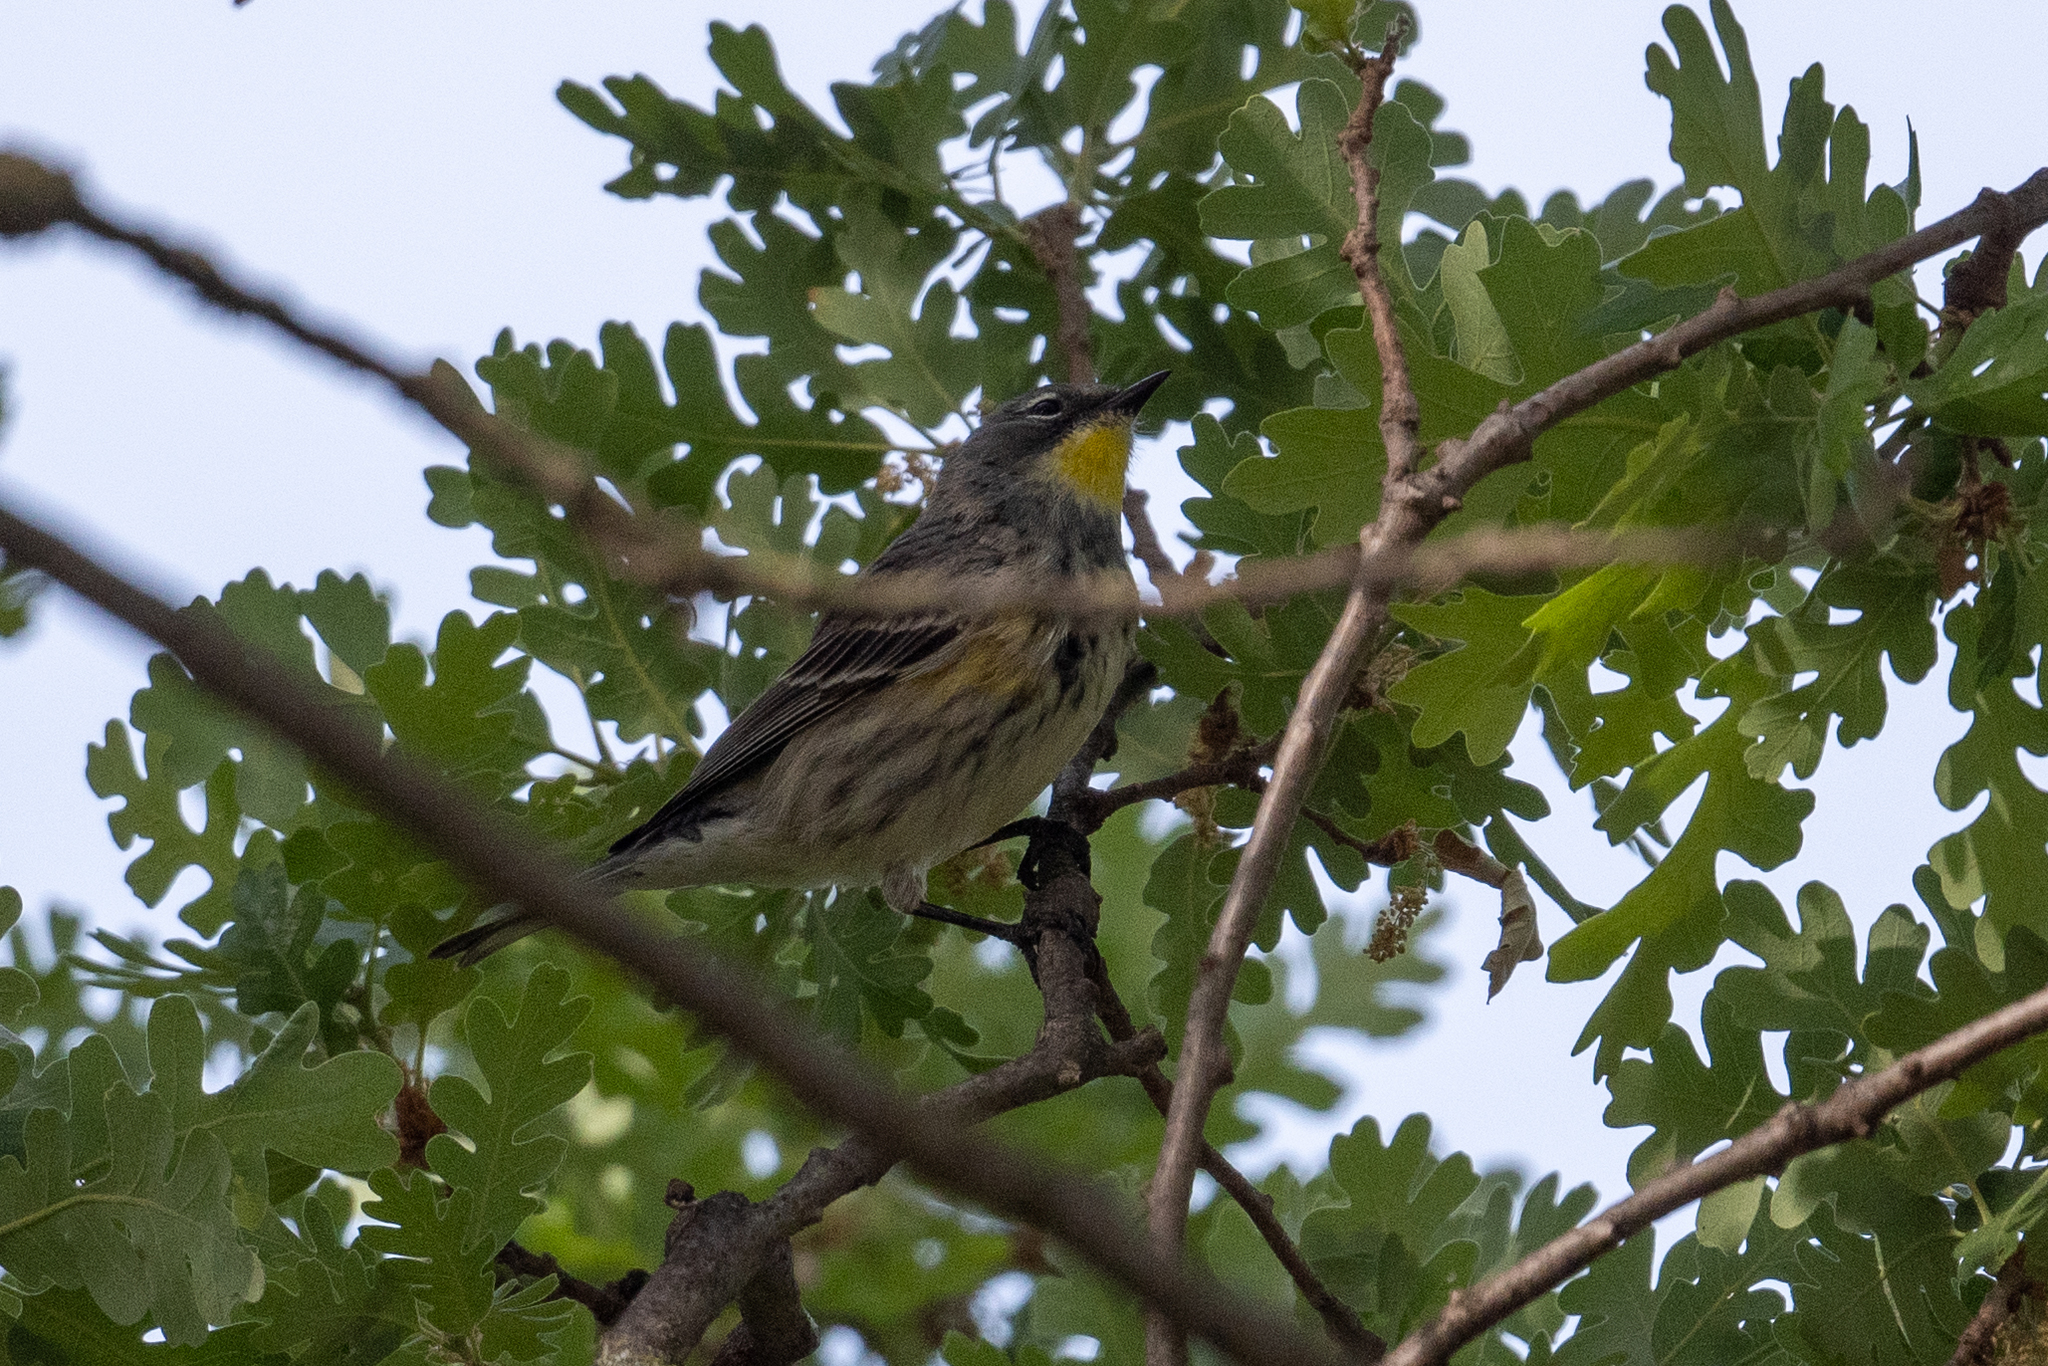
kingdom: Animalia
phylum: Chordata
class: Aves
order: Passeriformes
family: Parulidae
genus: Setophaga
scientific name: Setophaga coronata
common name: Myrtle warbler
